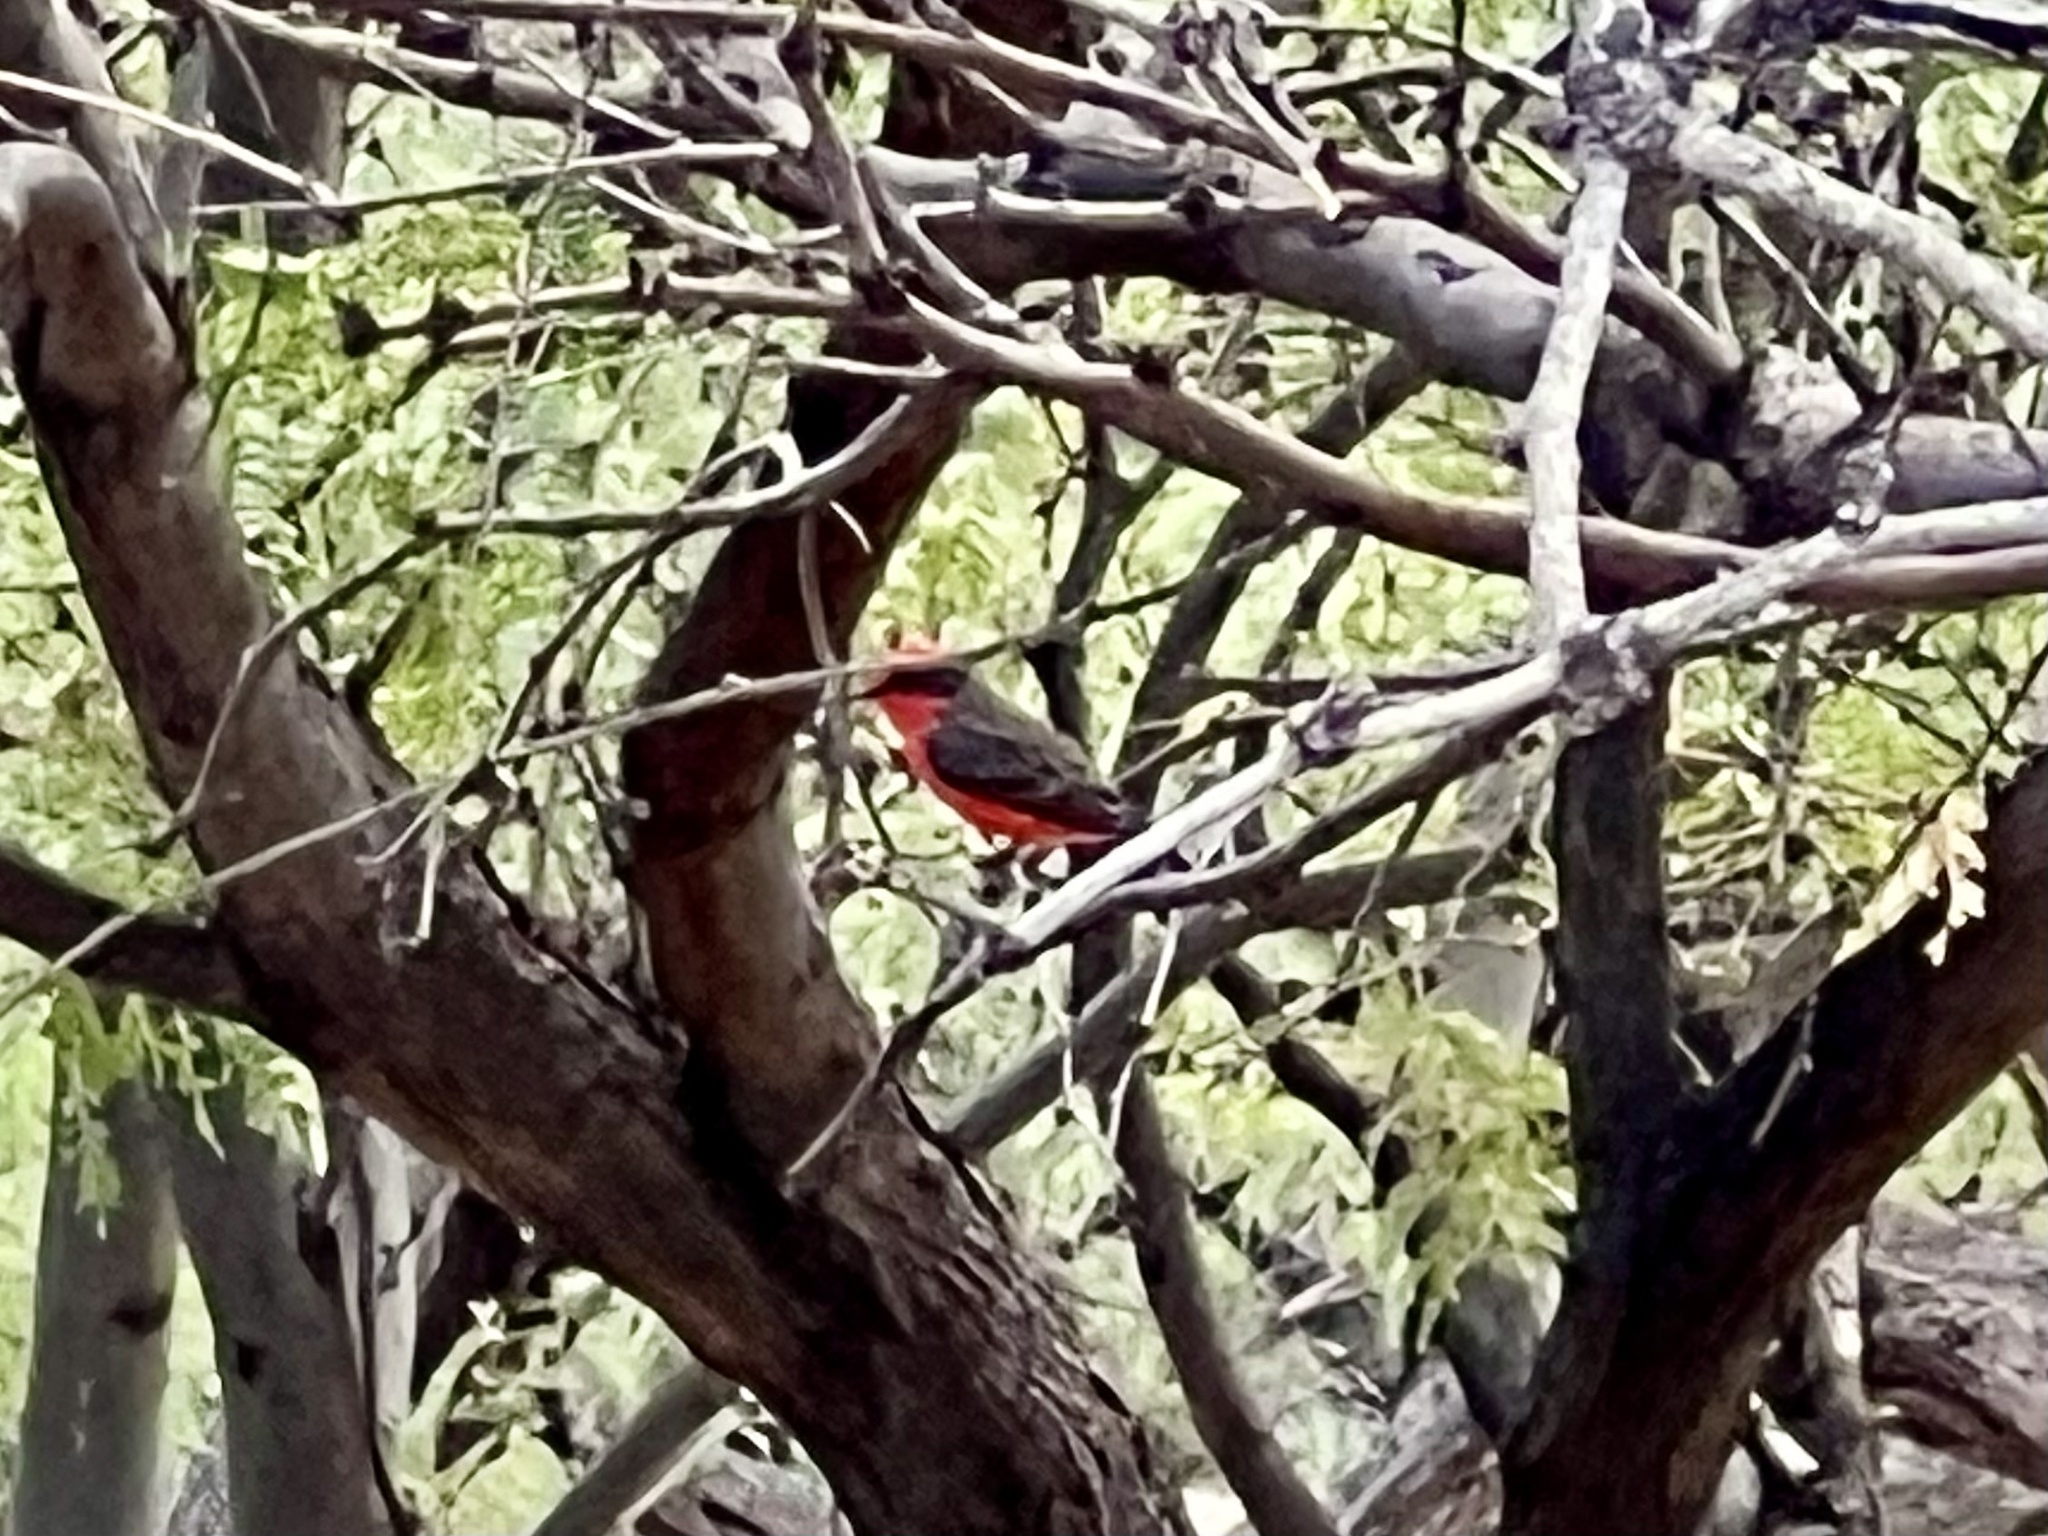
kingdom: Animalia
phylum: Chordata
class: Aves
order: Passeriformes
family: Tyrannidae
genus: Pyrocephalus
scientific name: Pyrocephalus rubinus
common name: Vermilion flycatcher
